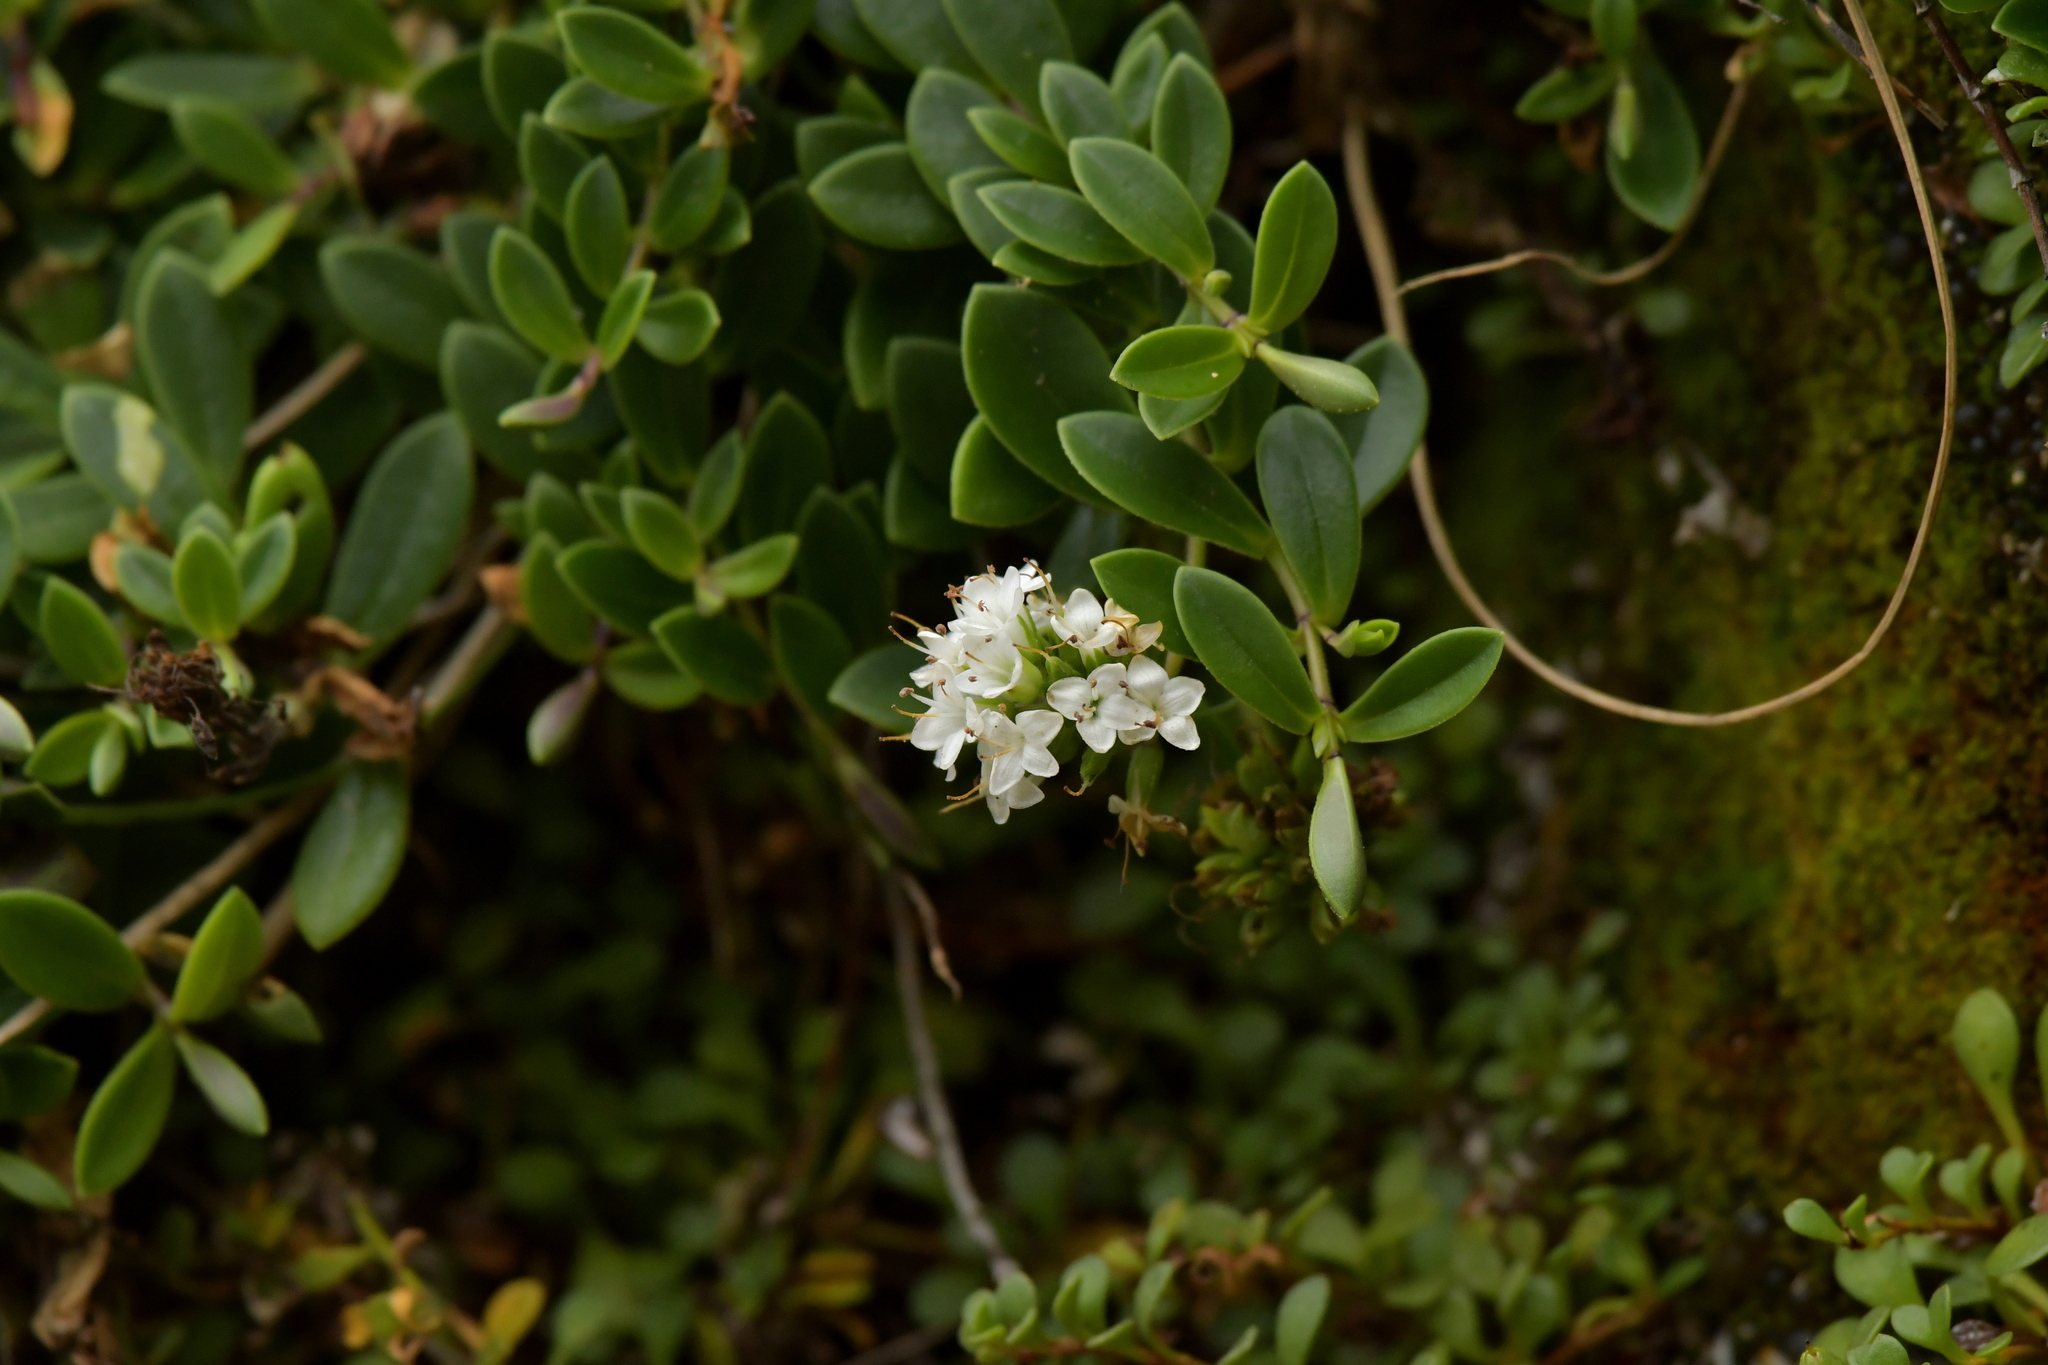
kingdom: Plantae
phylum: Tracheophyta
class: Magnoliopsida
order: Lamiales
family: Plantaginaceae
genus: Veronica
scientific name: Veronica chathamica
